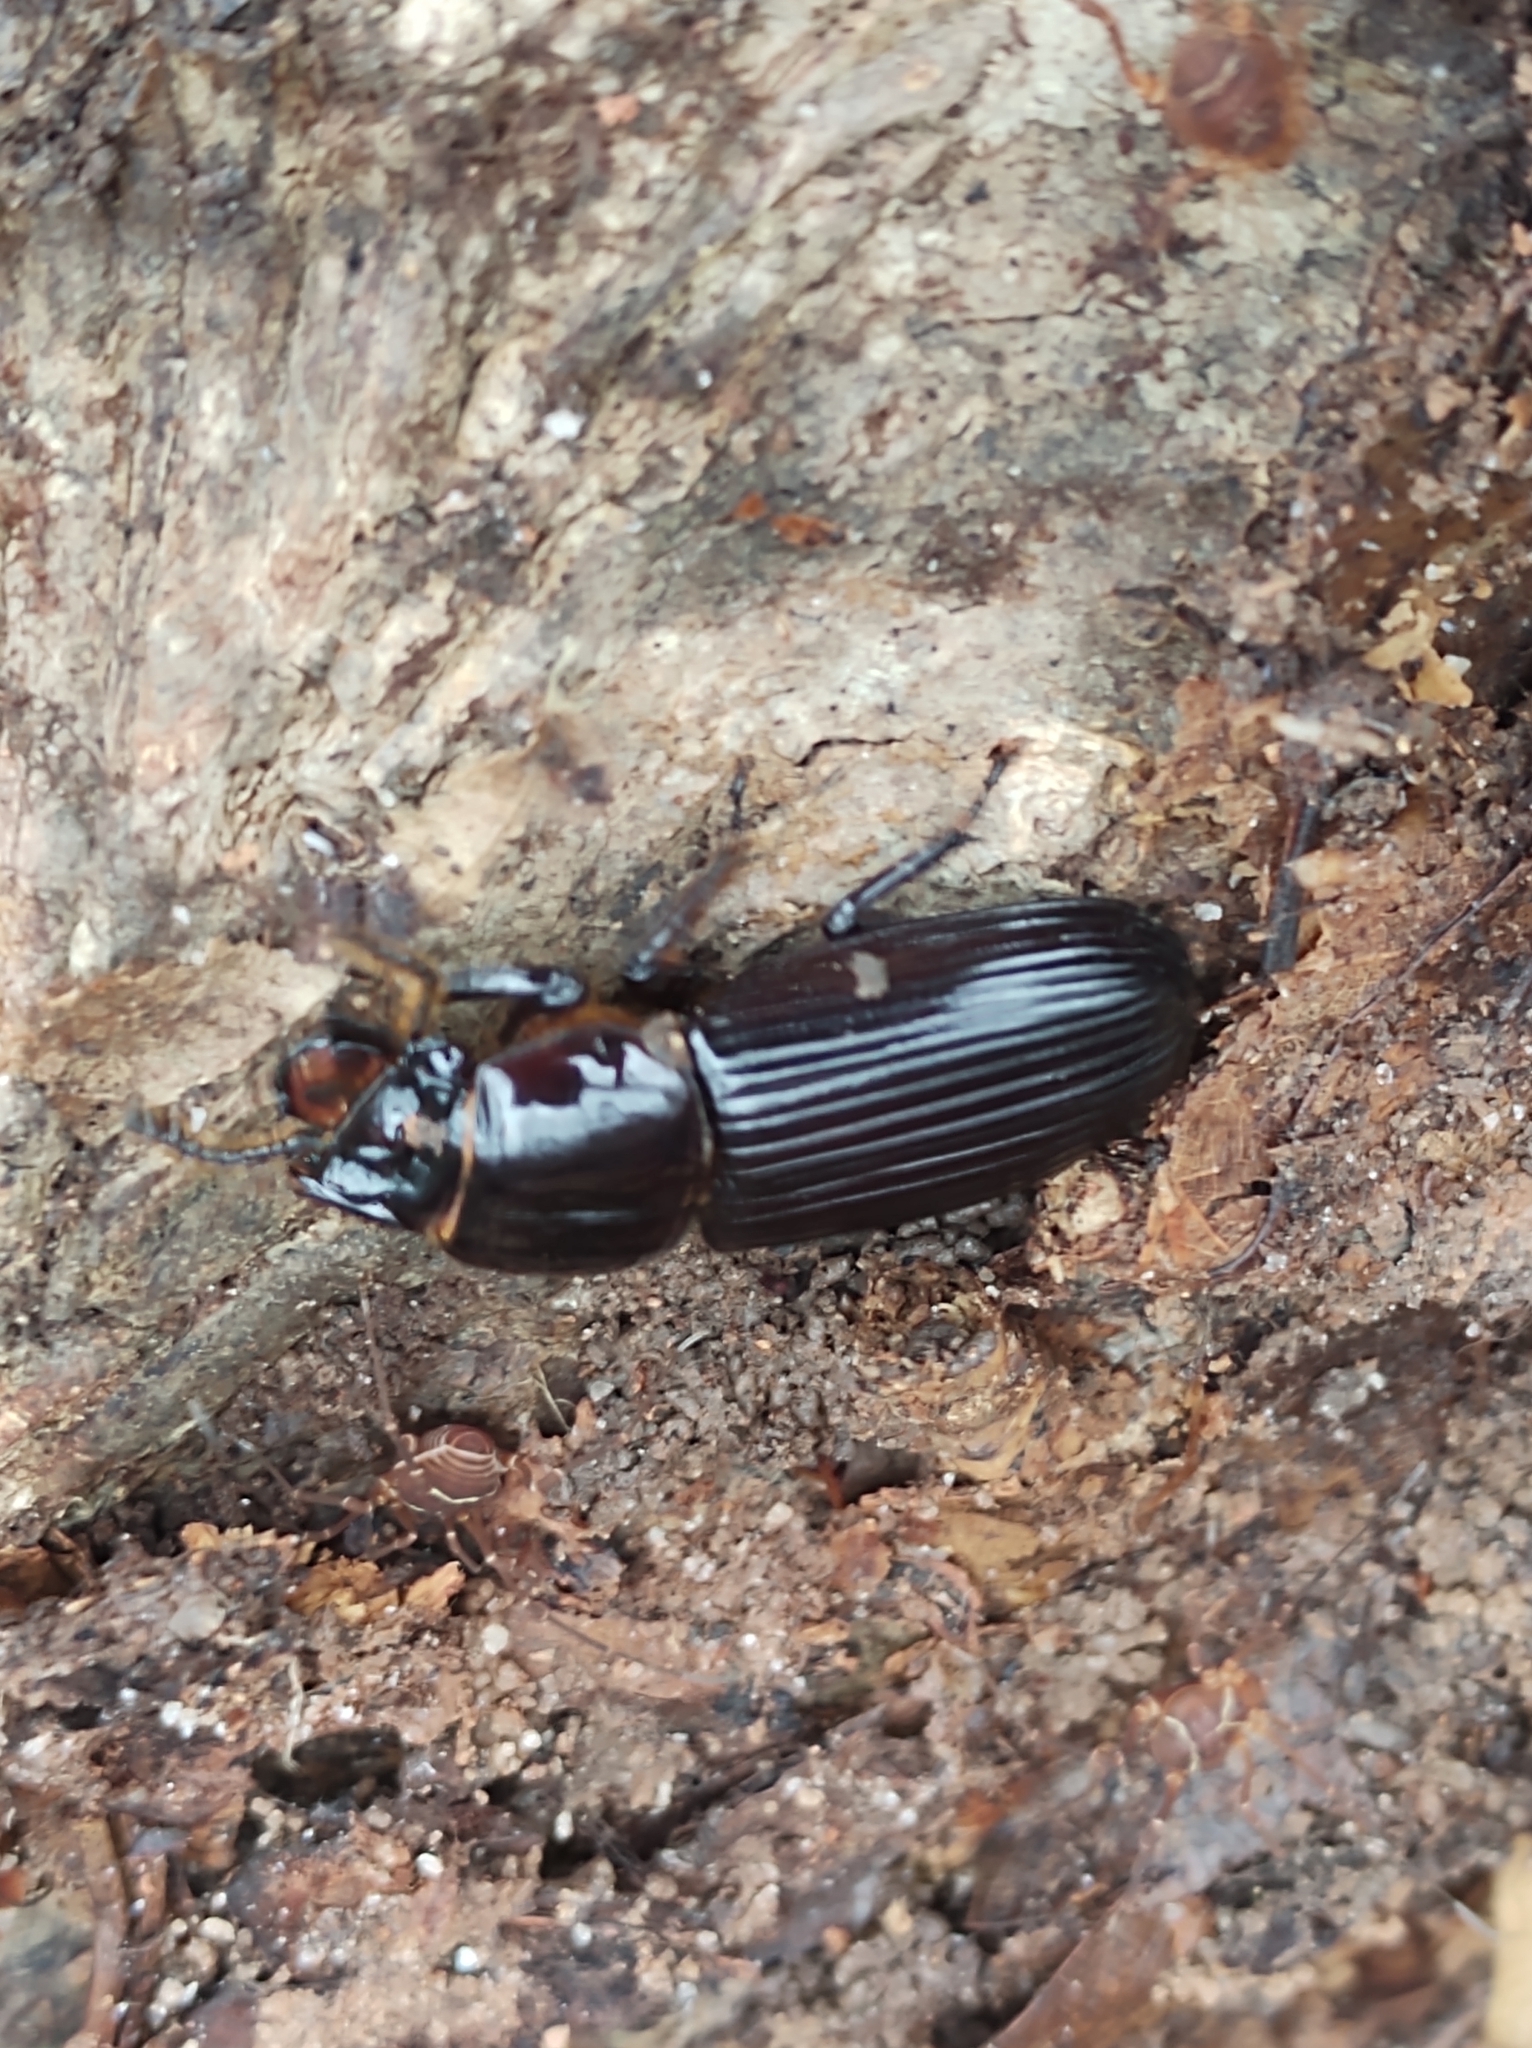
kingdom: Animalia
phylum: Arthropoda
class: Insecta
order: Coleoptera
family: Passalidae
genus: Odontotaenius
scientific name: Odontotaenius disjunctus
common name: Patent leather beetle
